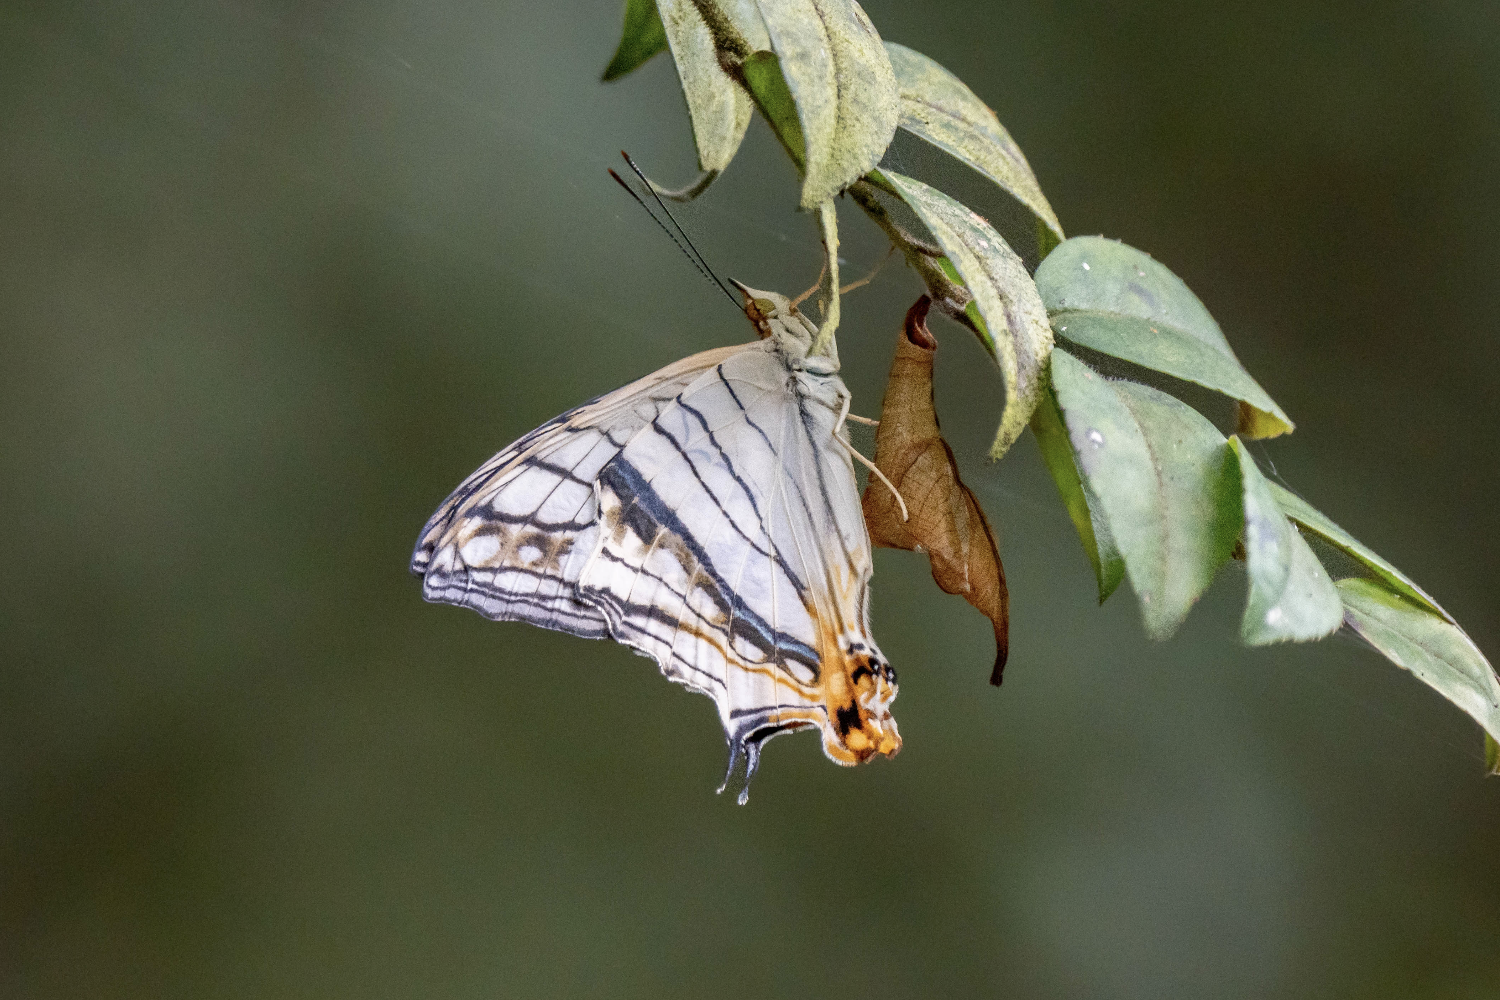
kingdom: Animalia
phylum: Arthropoda
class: Insecta
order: Lepidoptera
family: Nymphalidae
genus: Cyrestis
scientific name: Cyrestis thyodamas
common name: Common mapwing
